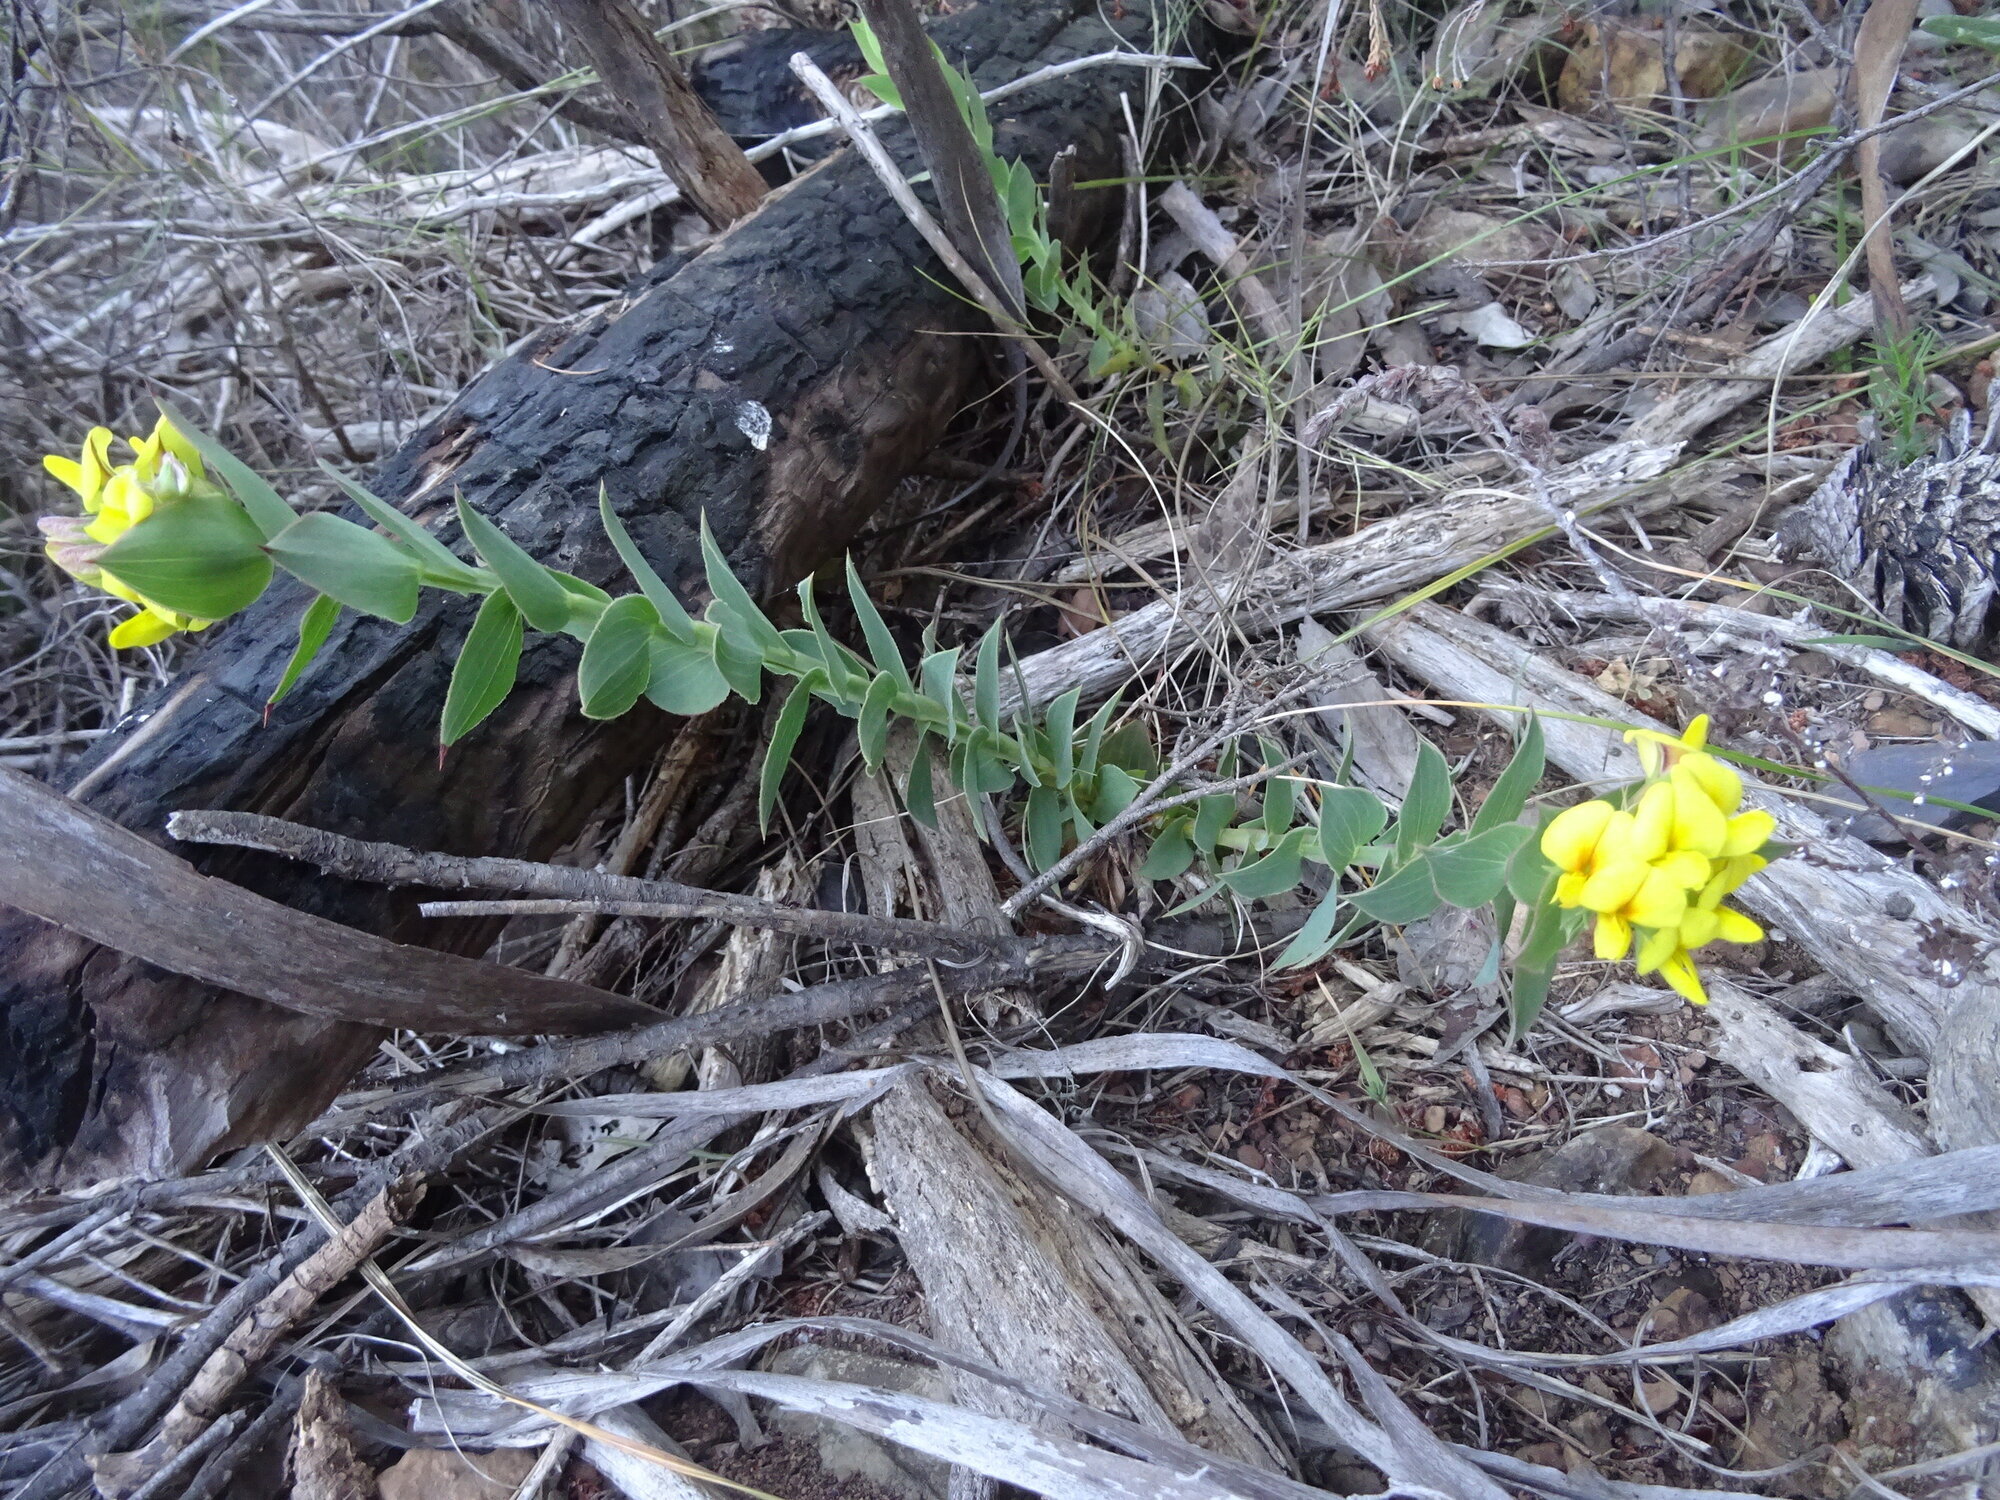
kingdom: Plantae
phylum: Tracheophyta
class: Magnoliopsida
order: Fabales
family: Fabaceae
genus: Aspalathus
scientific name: Aspalathus crenata
